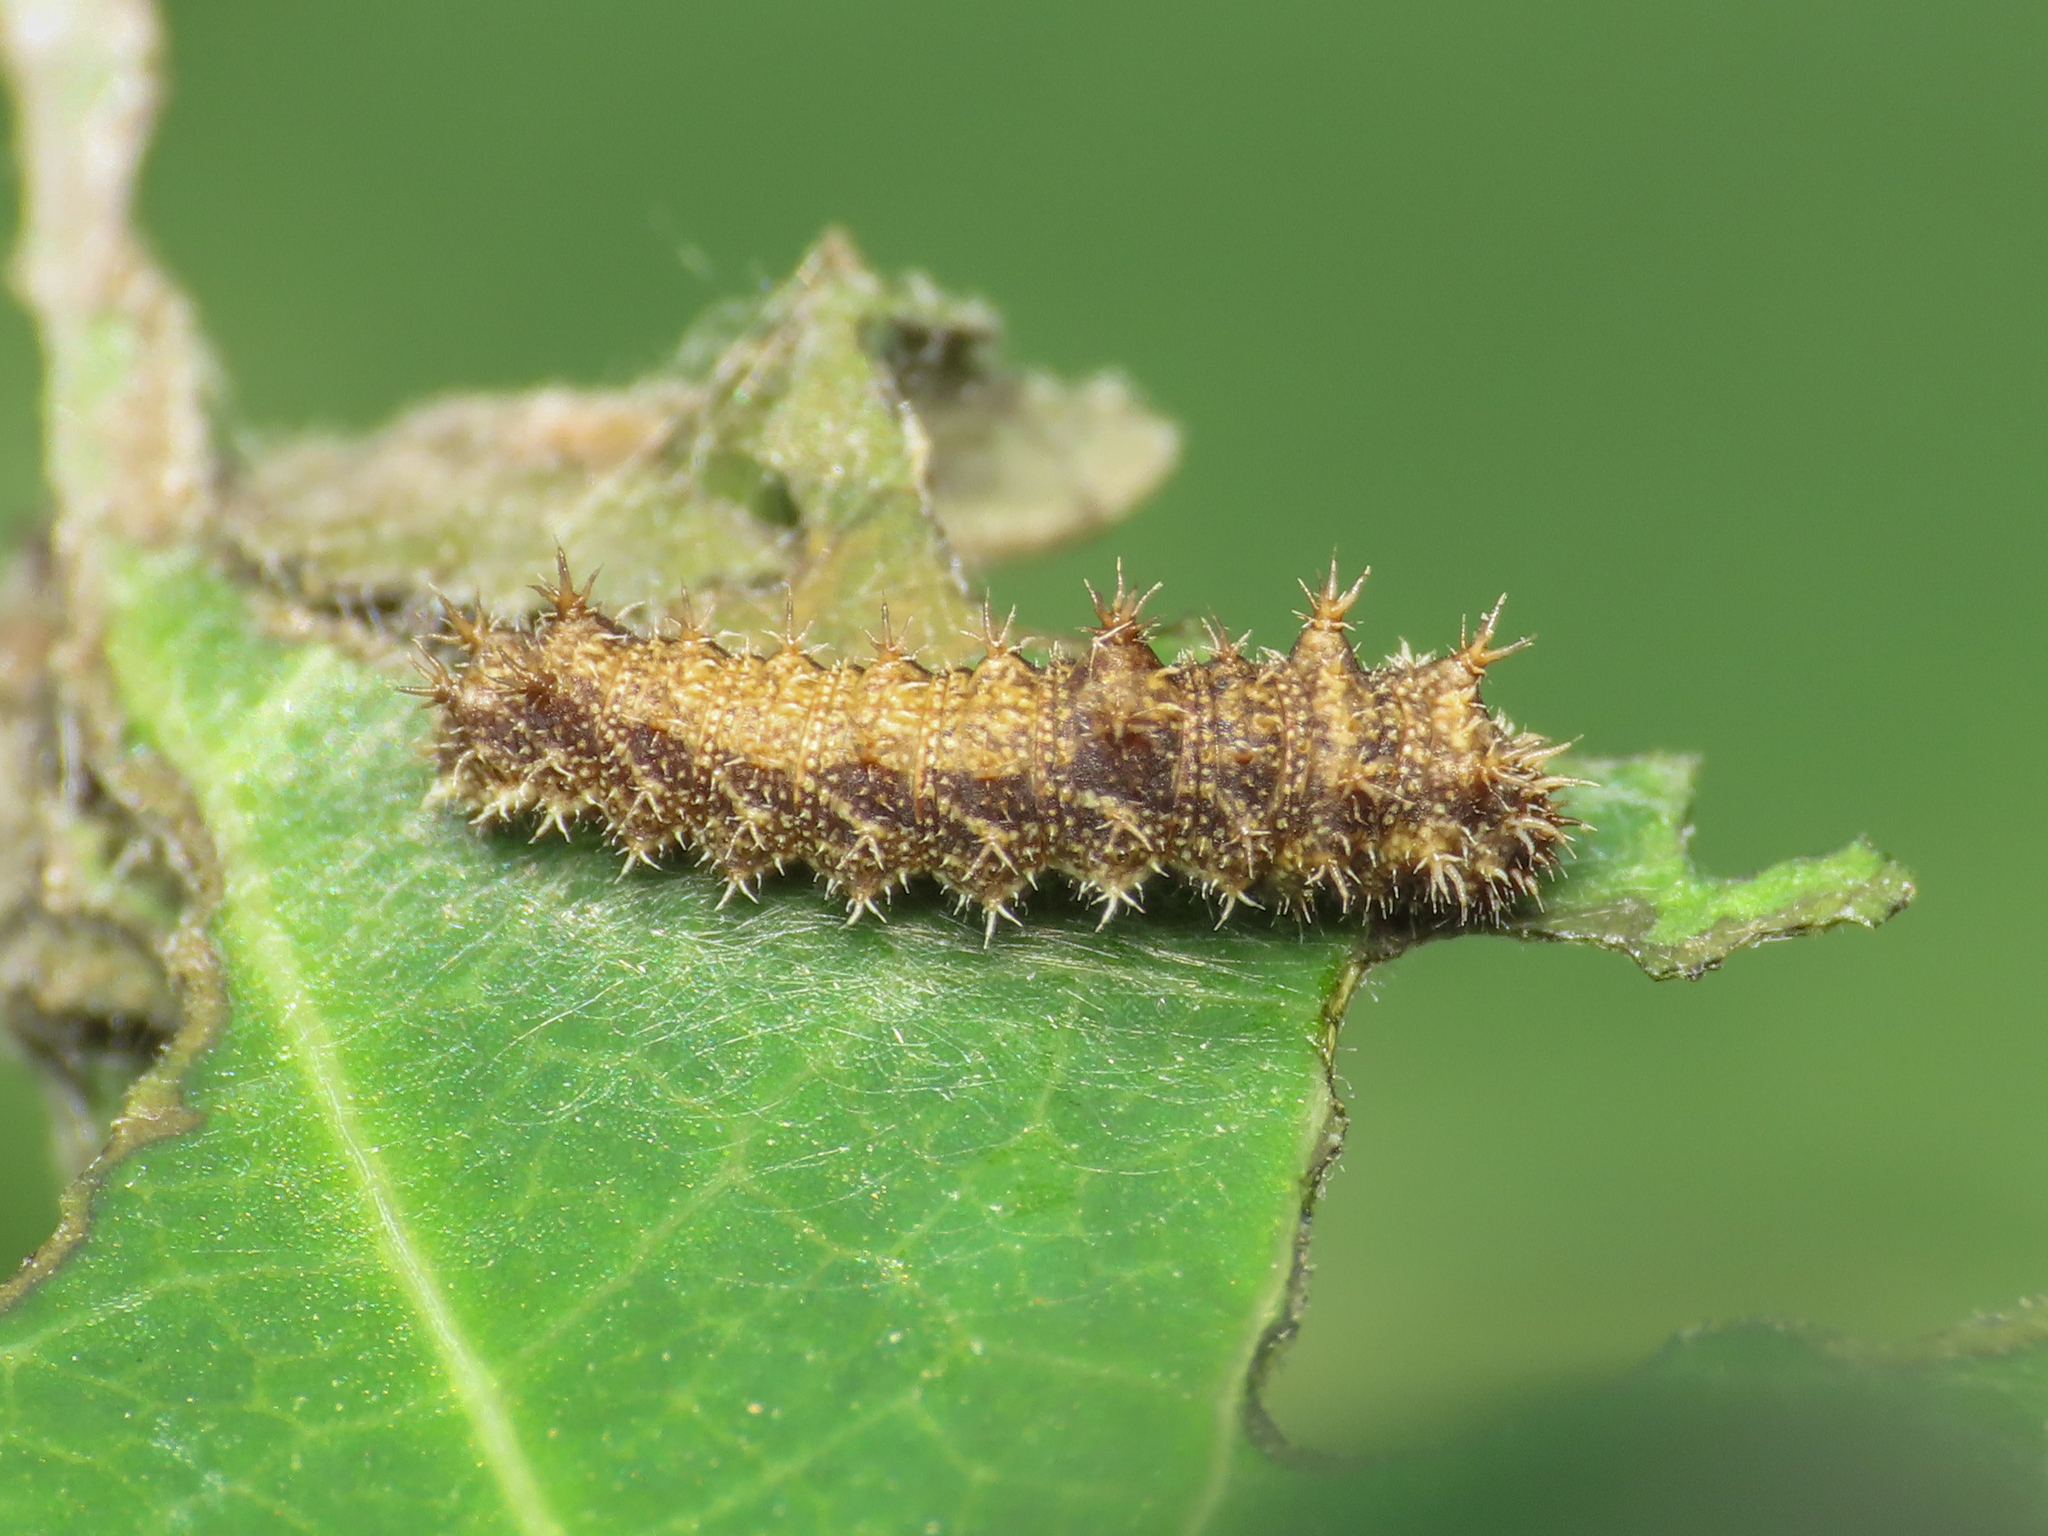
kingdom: Animalia
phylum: Arthropoda
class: Insecta
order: Lepidoptera
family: Nymphalidae
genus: Limenitis
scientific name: Limenitis reducta
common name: Southern white admiral
